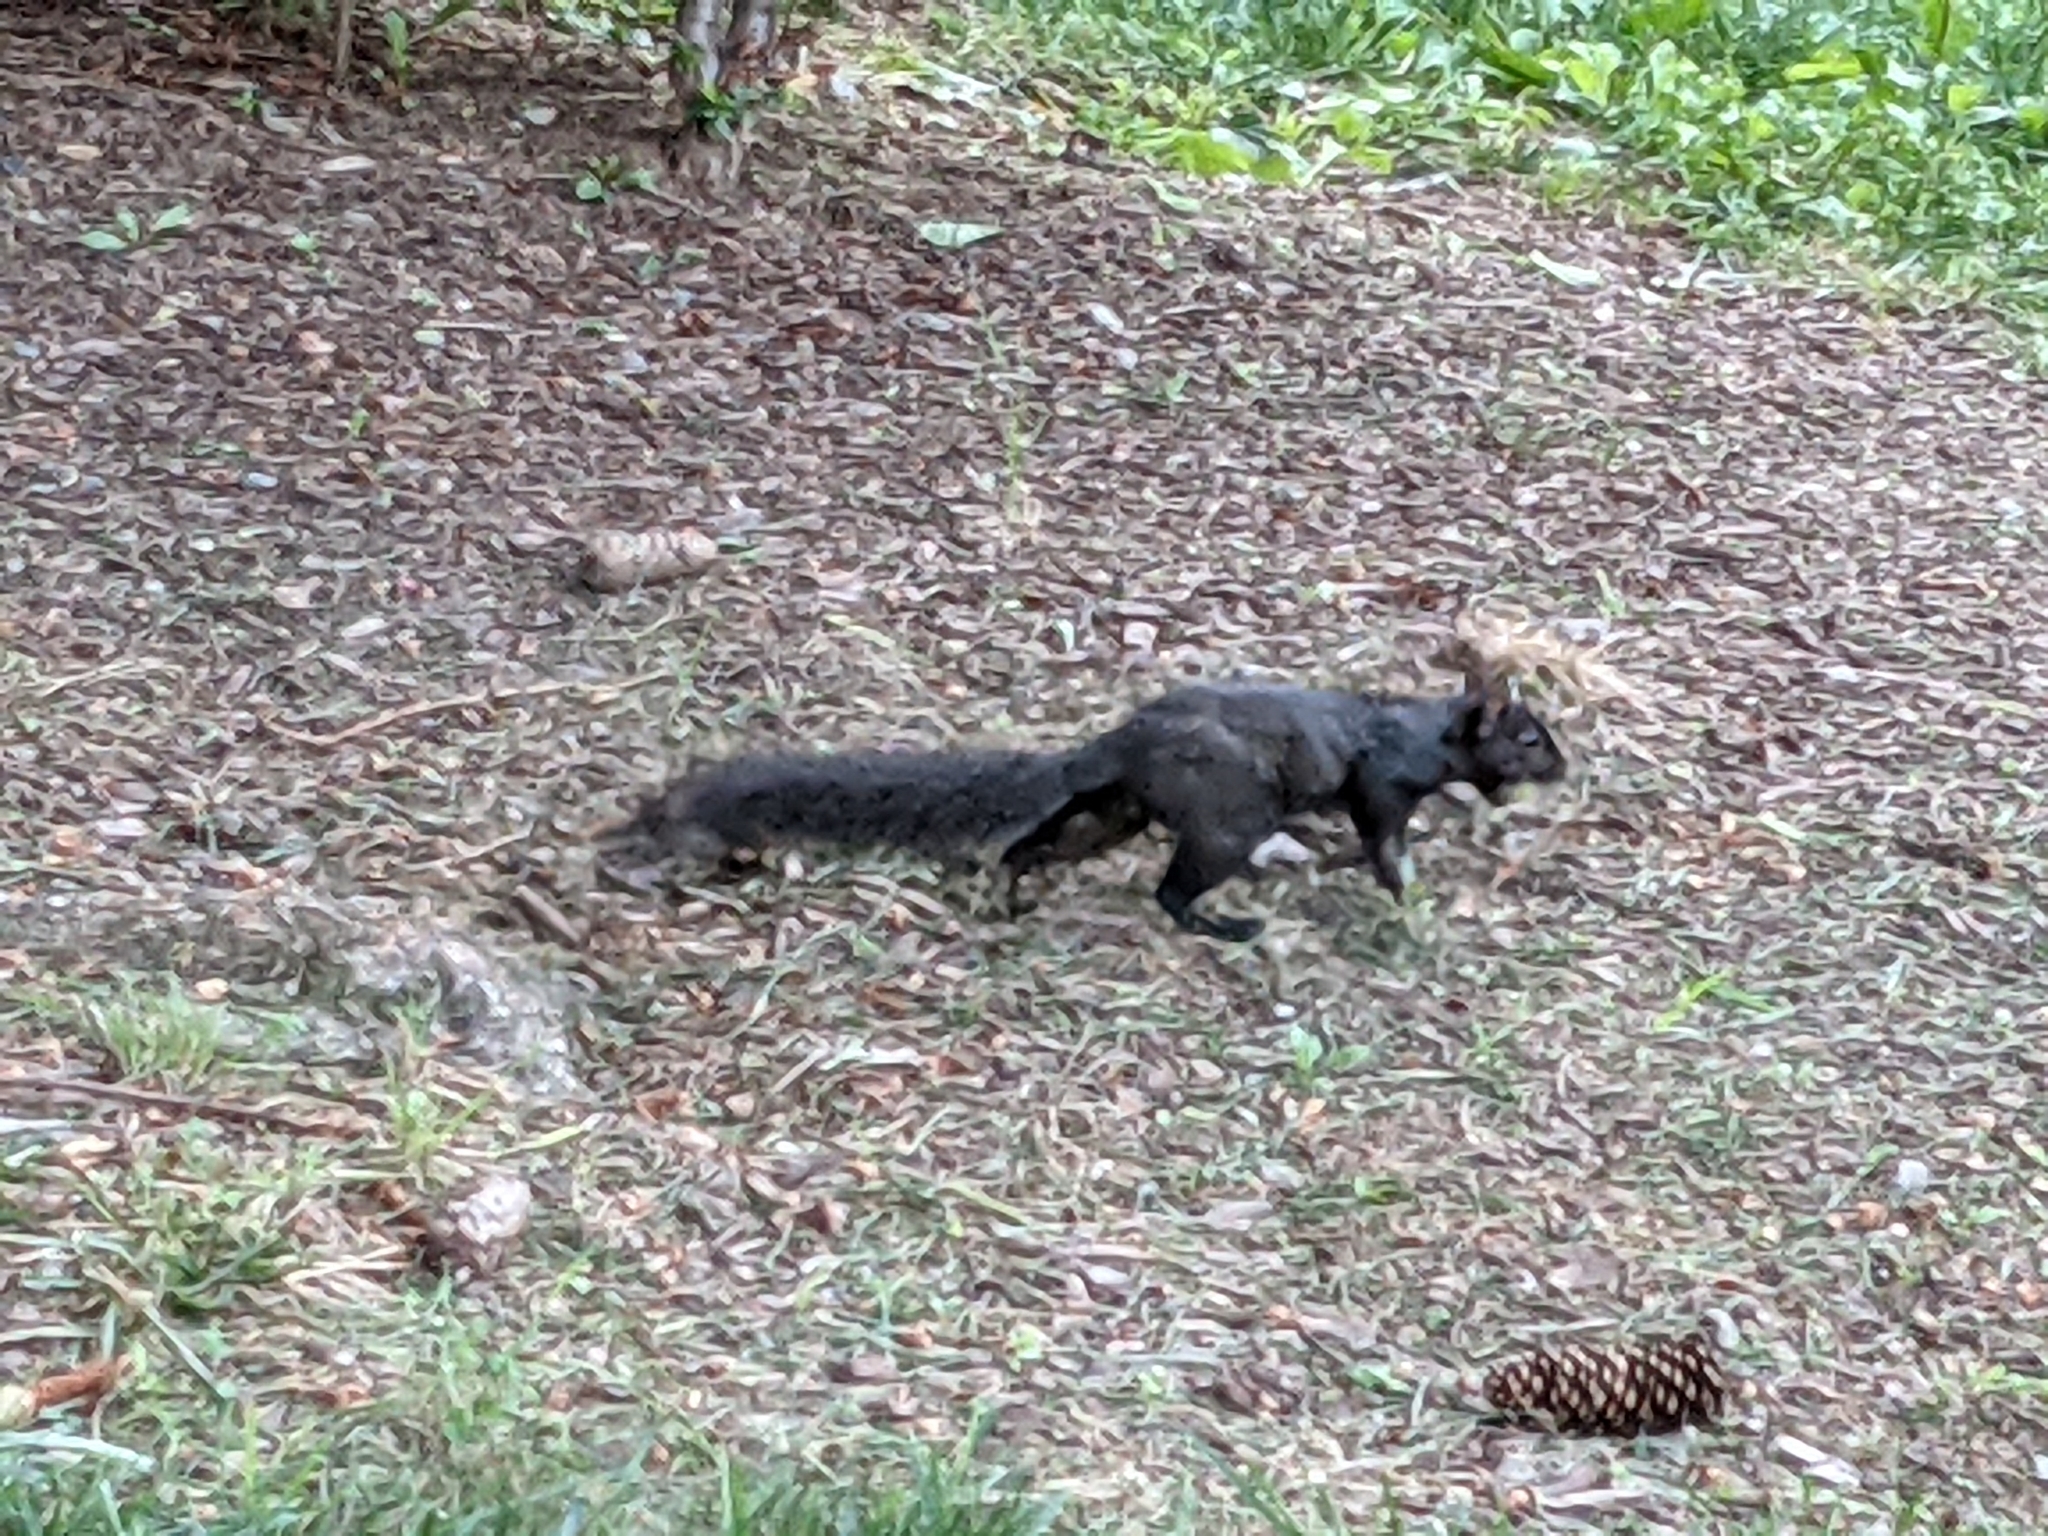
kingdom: Animalia
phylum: Chordata
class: Mammalia
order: Rodentia
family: Sciuridae
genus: Sciurus
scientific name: Sciurus carolinensis
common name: Eastern gray squirrel
